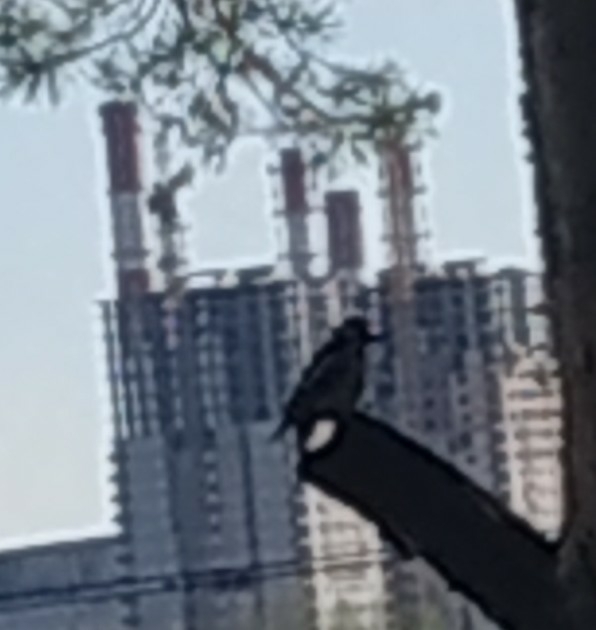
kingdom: Animalia
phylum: Chordata
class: Aves
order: Piciformes
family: Picidae
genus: Dendrocopos
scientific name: Dendrocopos major
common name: Great spotted woodpecker
